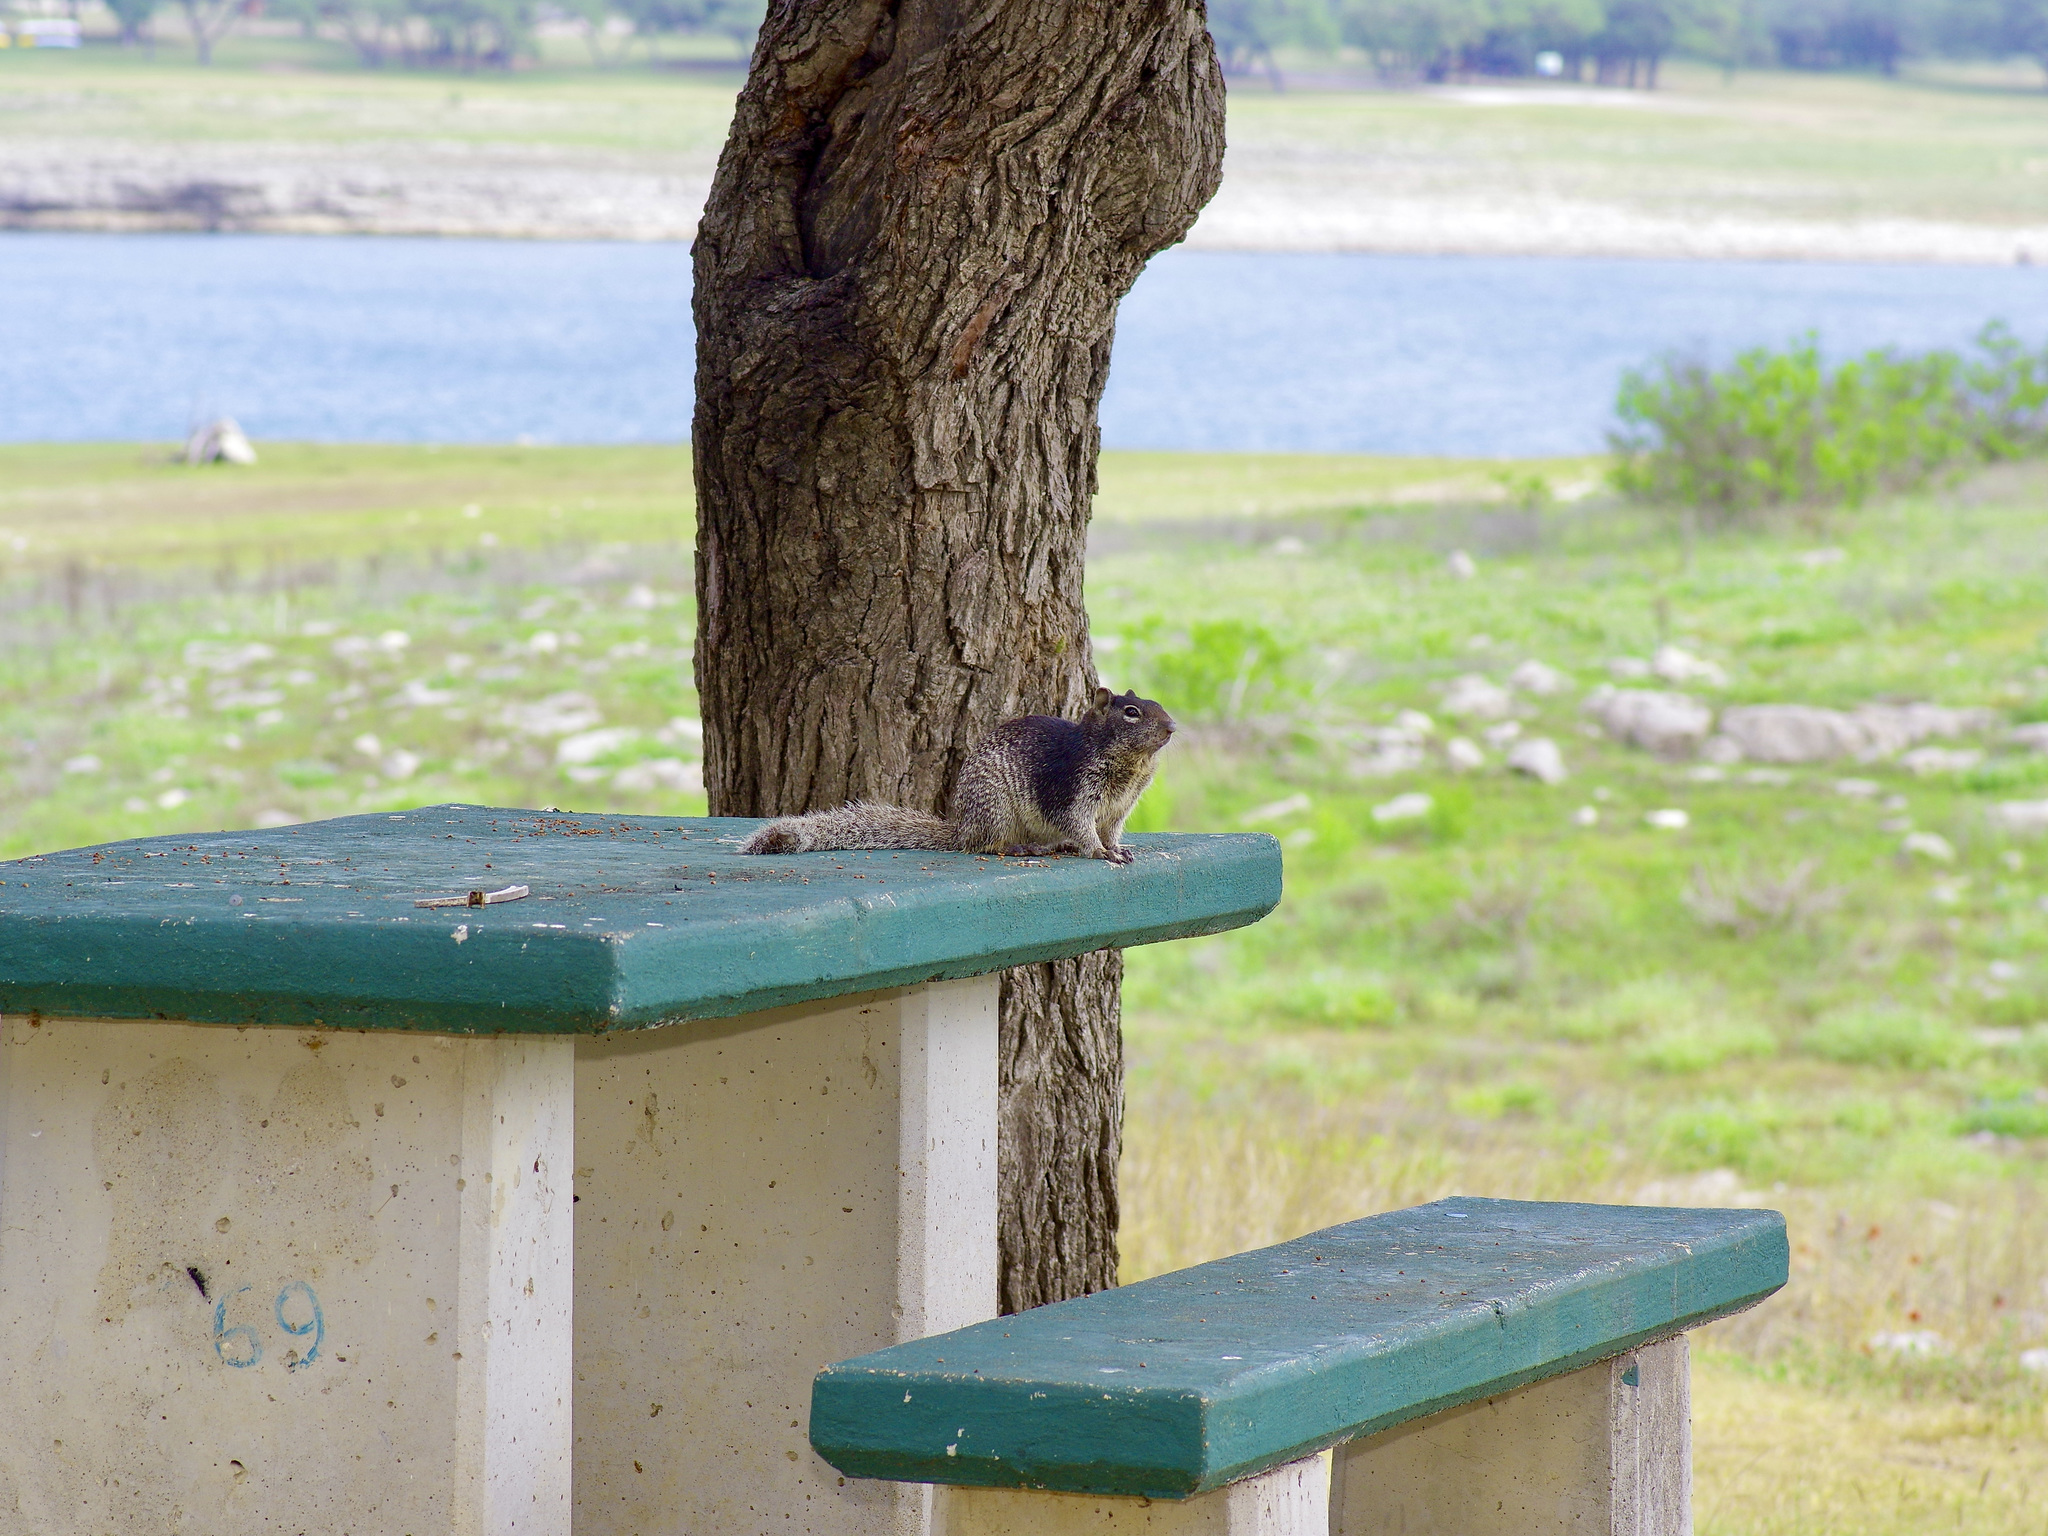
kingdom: Animalia
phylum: Chordata
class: Mammalia
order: Rodentia
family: Sciuridae
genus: Otospermophilus
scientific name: Otospermophilus variegatus
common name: Rock squirrel
